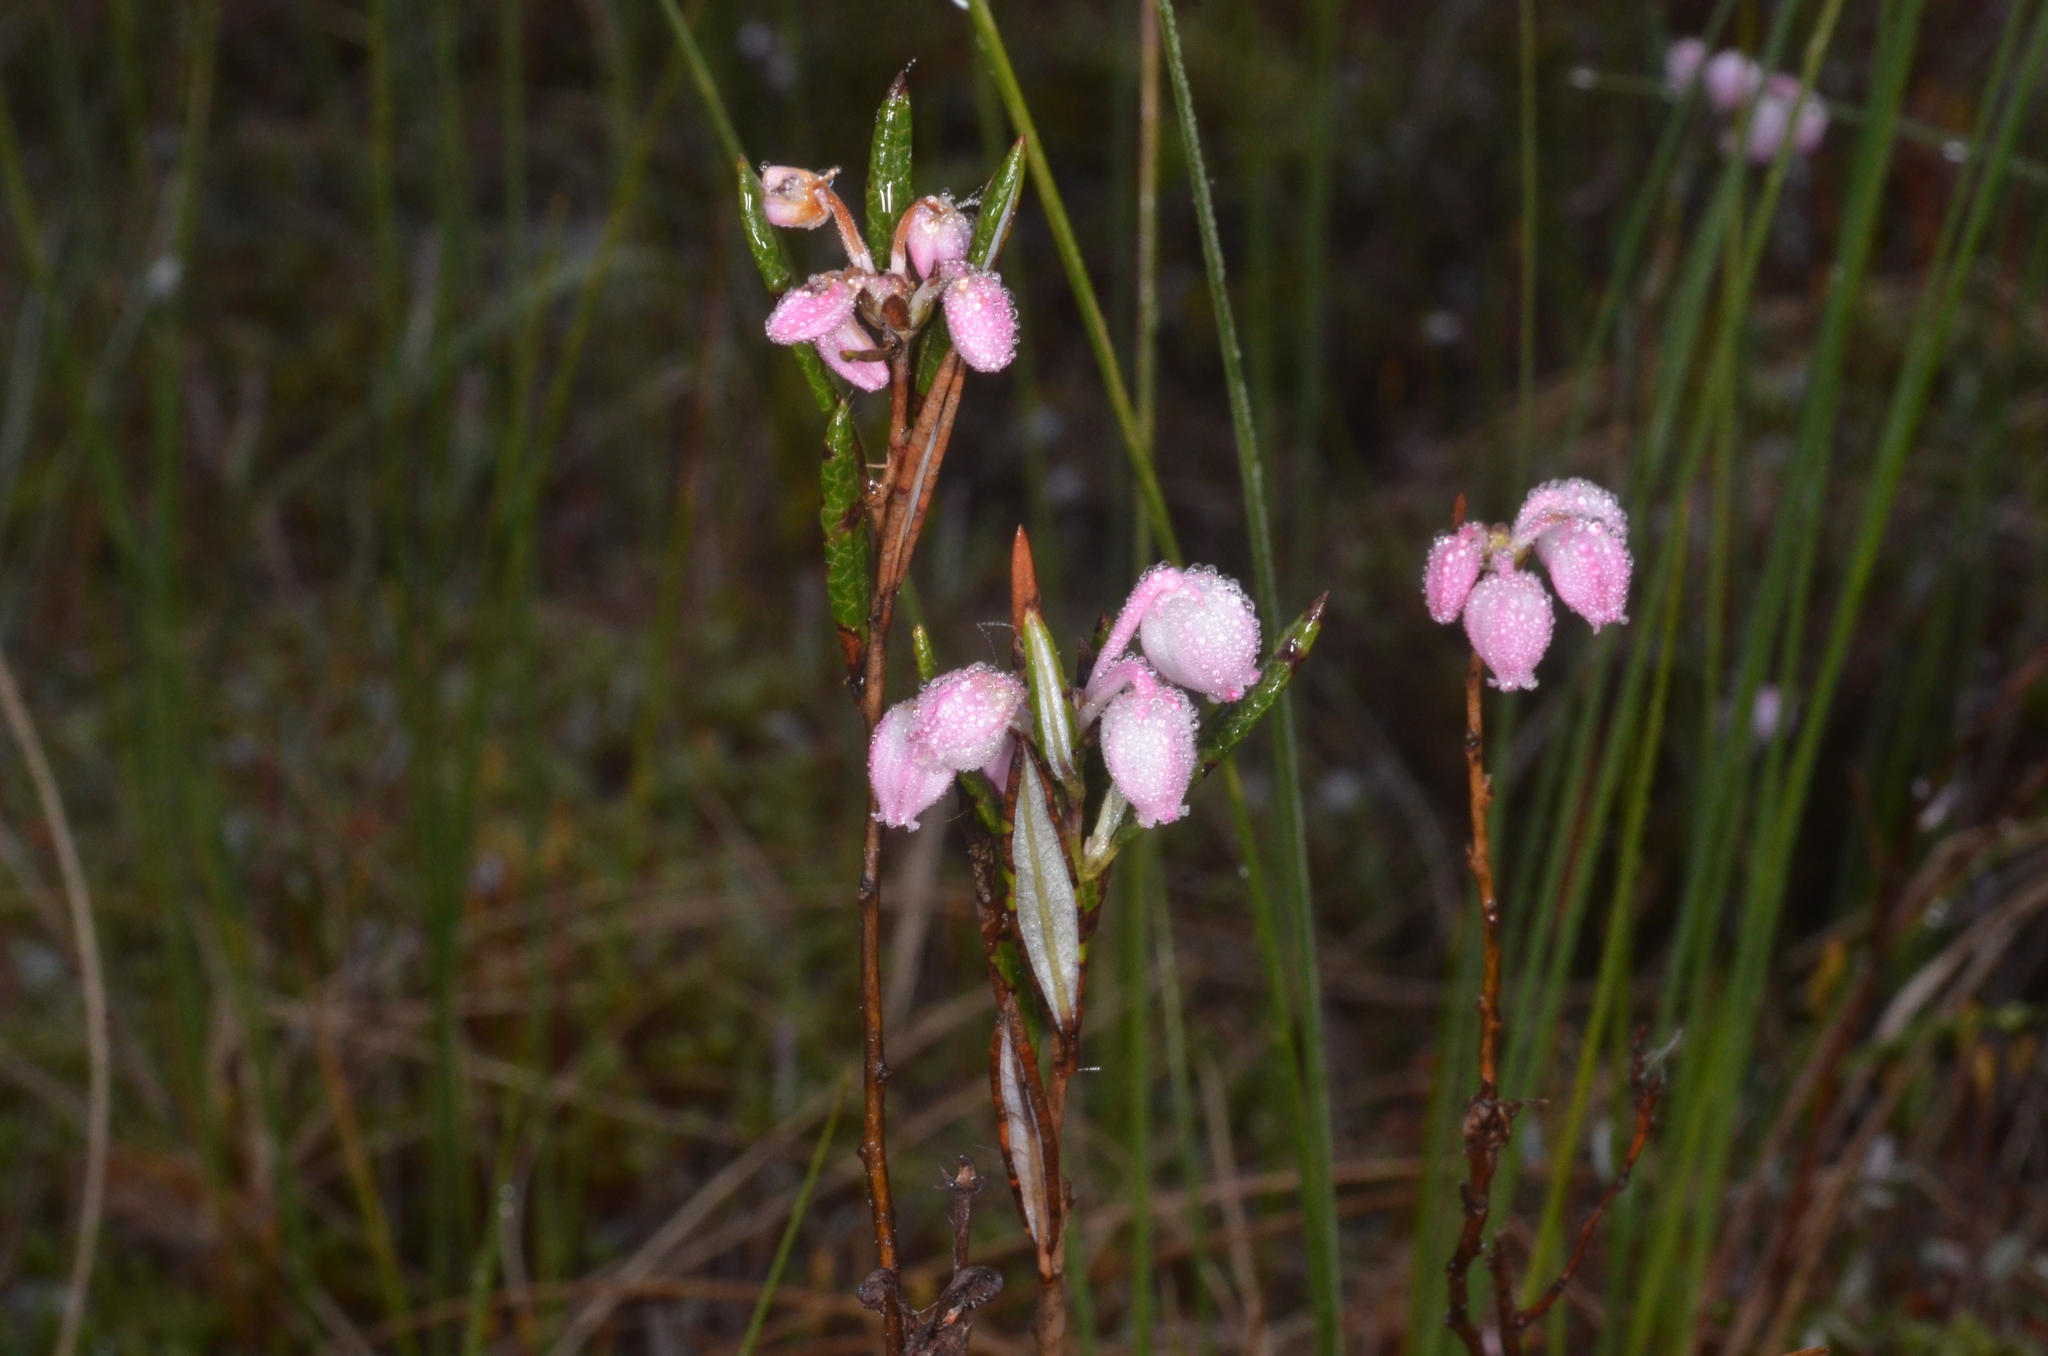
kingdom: Plantae
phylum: Tracheophyta
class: Magnoliopsida
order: Ericales
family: Ericaceae
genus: Andromeda
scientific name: Andromeda polifolia
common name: Bog-rosemary
